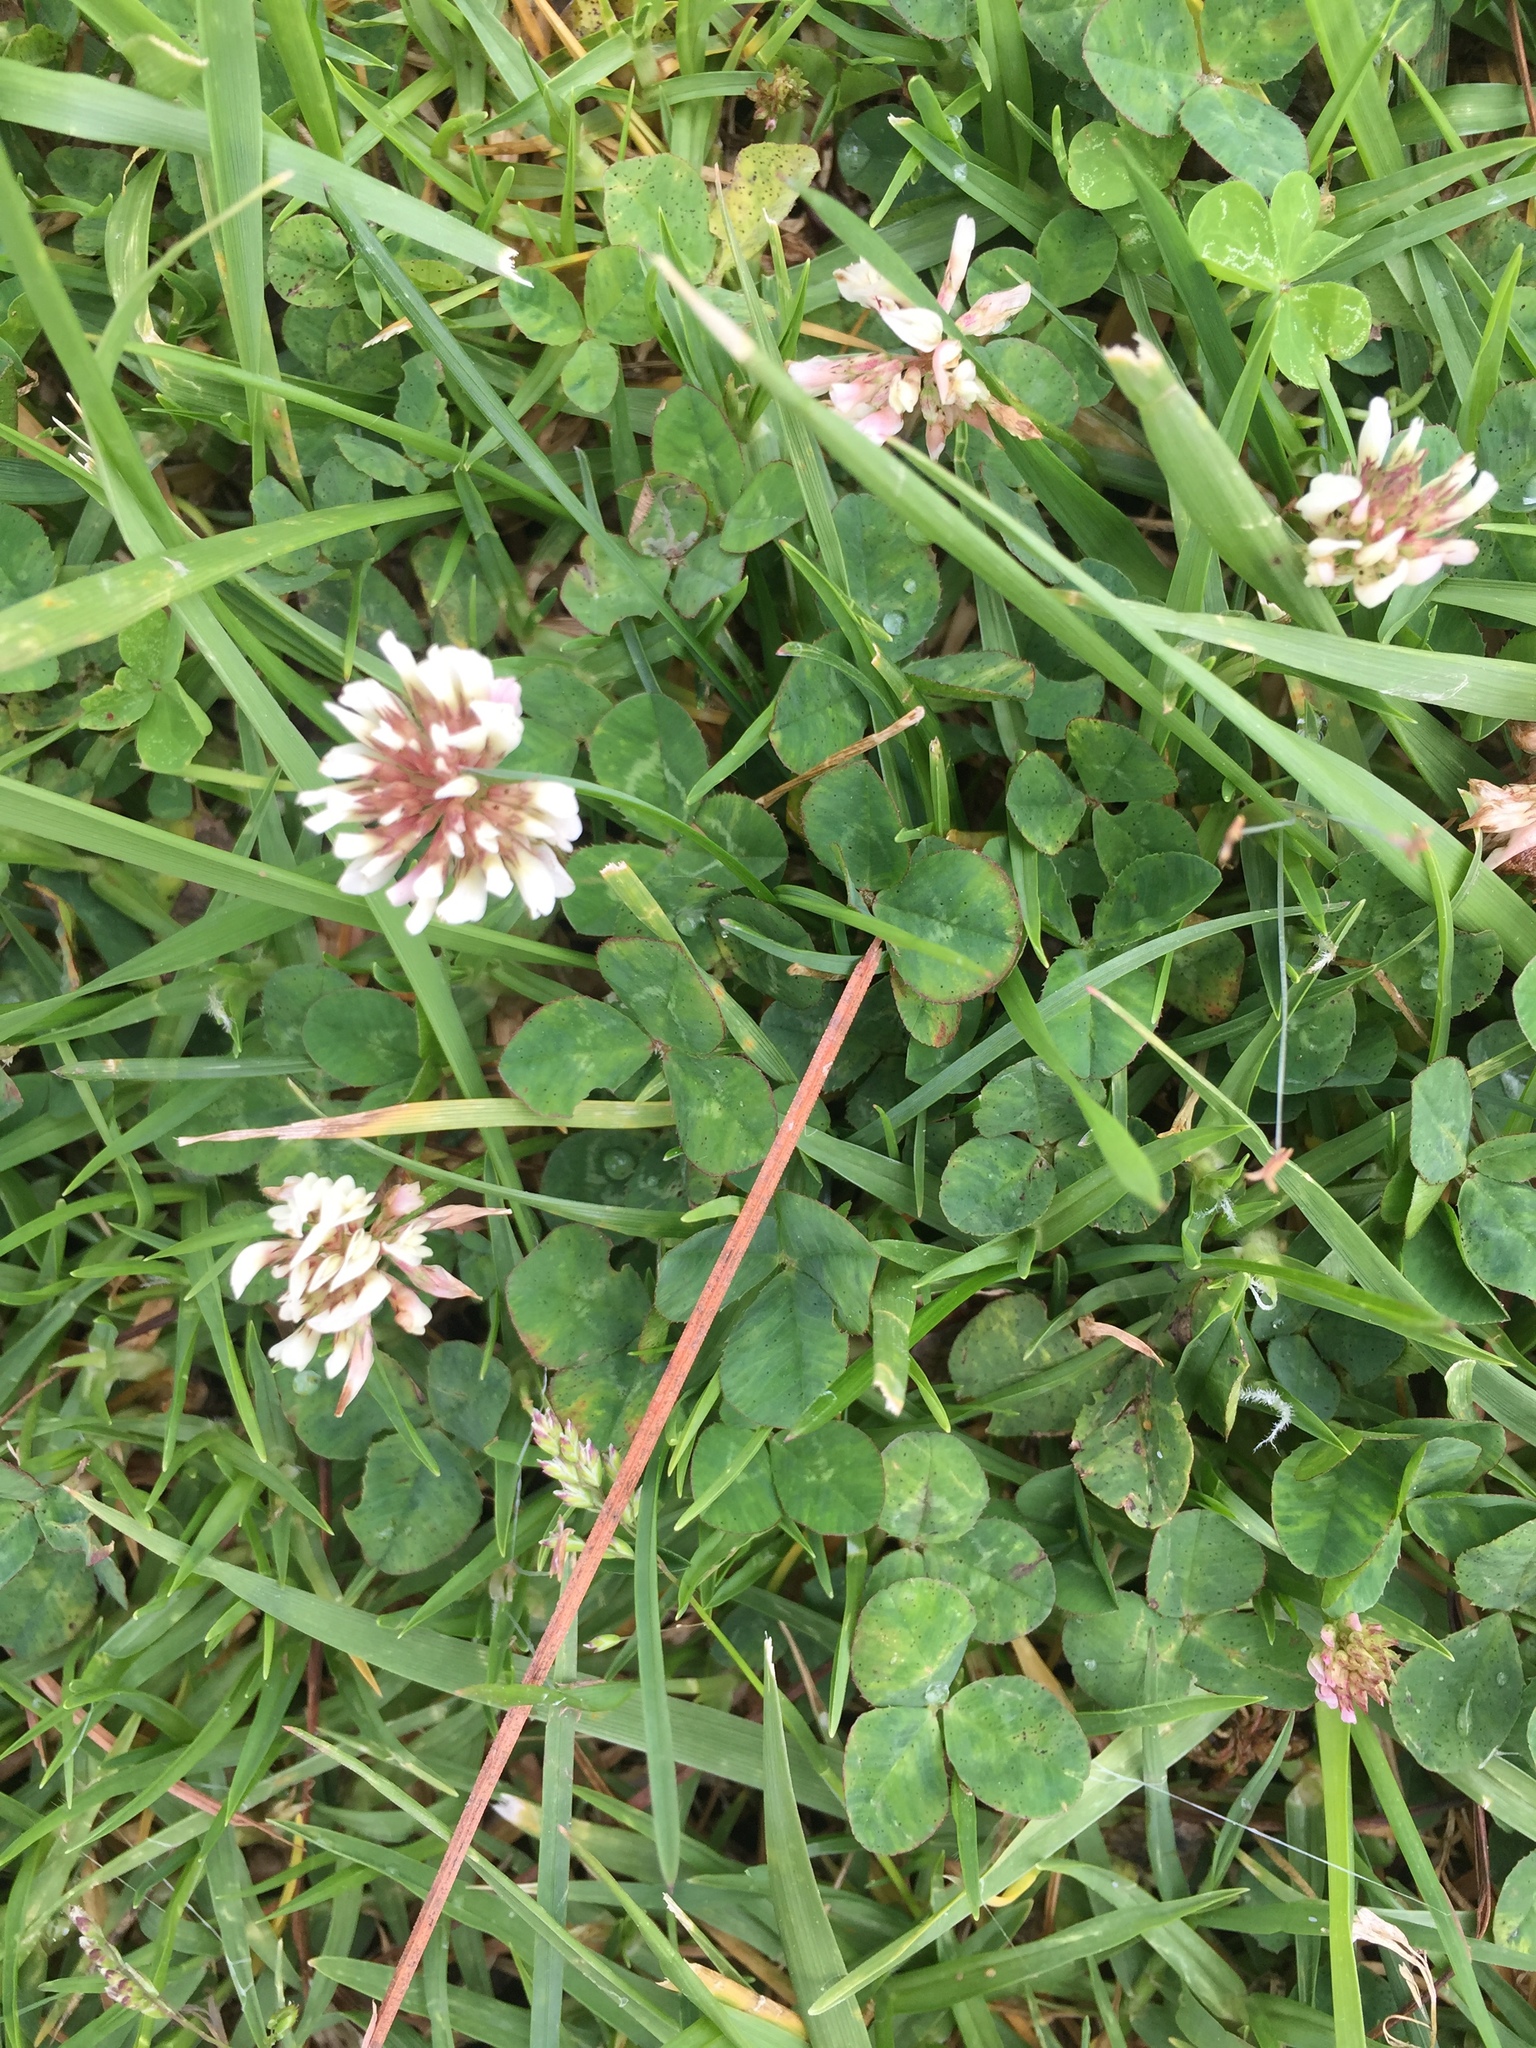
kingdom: Plantae
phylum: Tracheophyta
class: Magnoliopsida
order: Fabales
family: Fabaceae
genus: Trifolium
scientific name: Trifolium repens
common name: White clover
